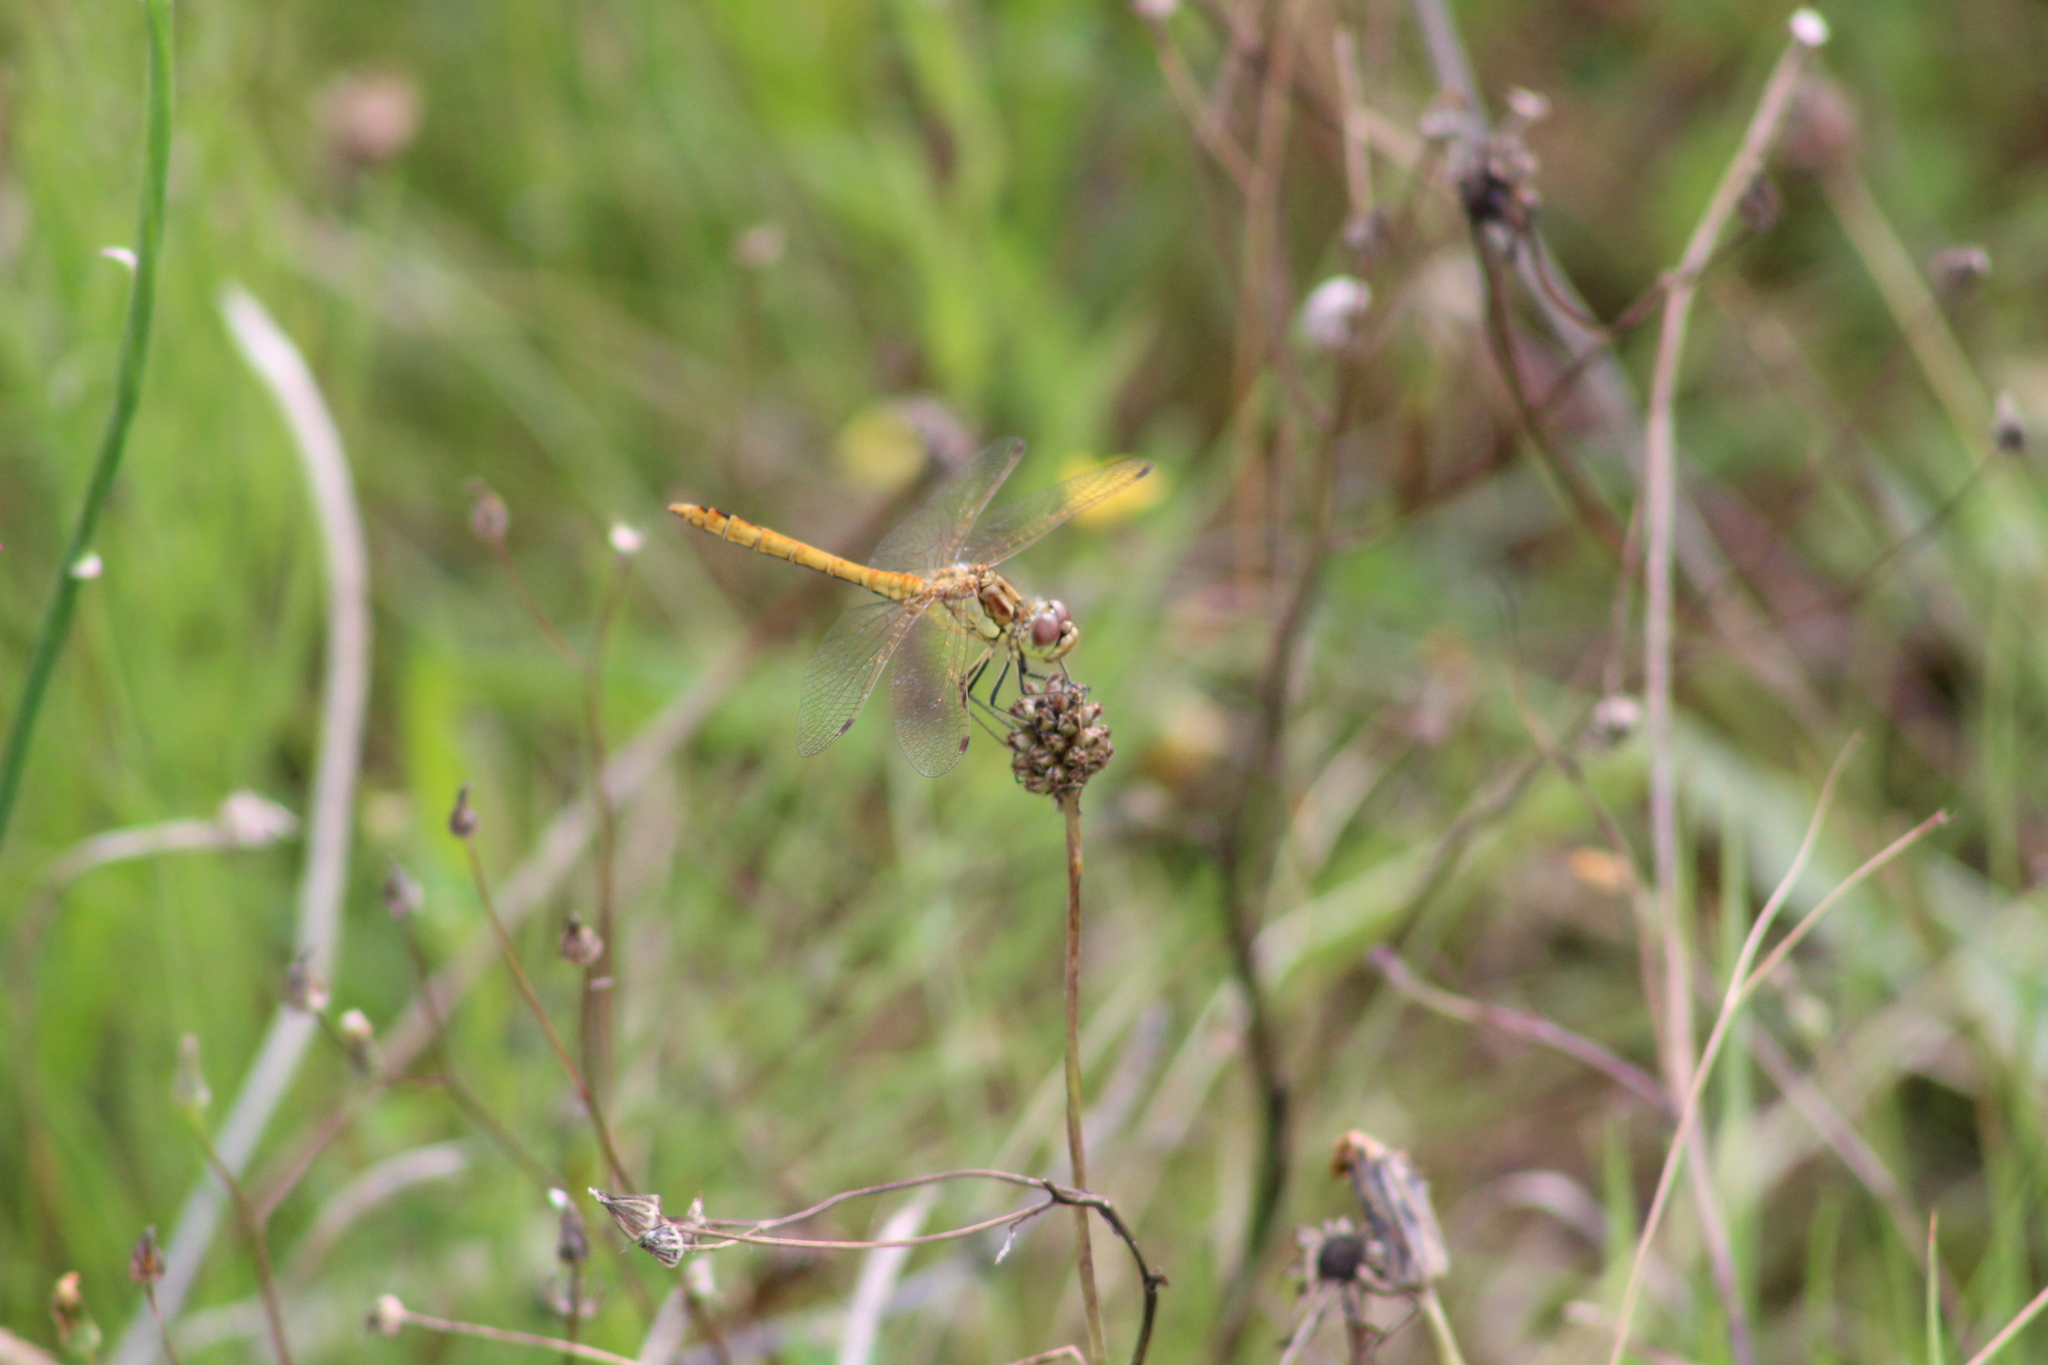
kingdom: Animalia
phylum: Arthropoda
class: Insecta
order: Odonata
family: Libellulidae
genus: Sympetrum
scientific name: Sympetrum vulgatum
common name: Vagrant darter
